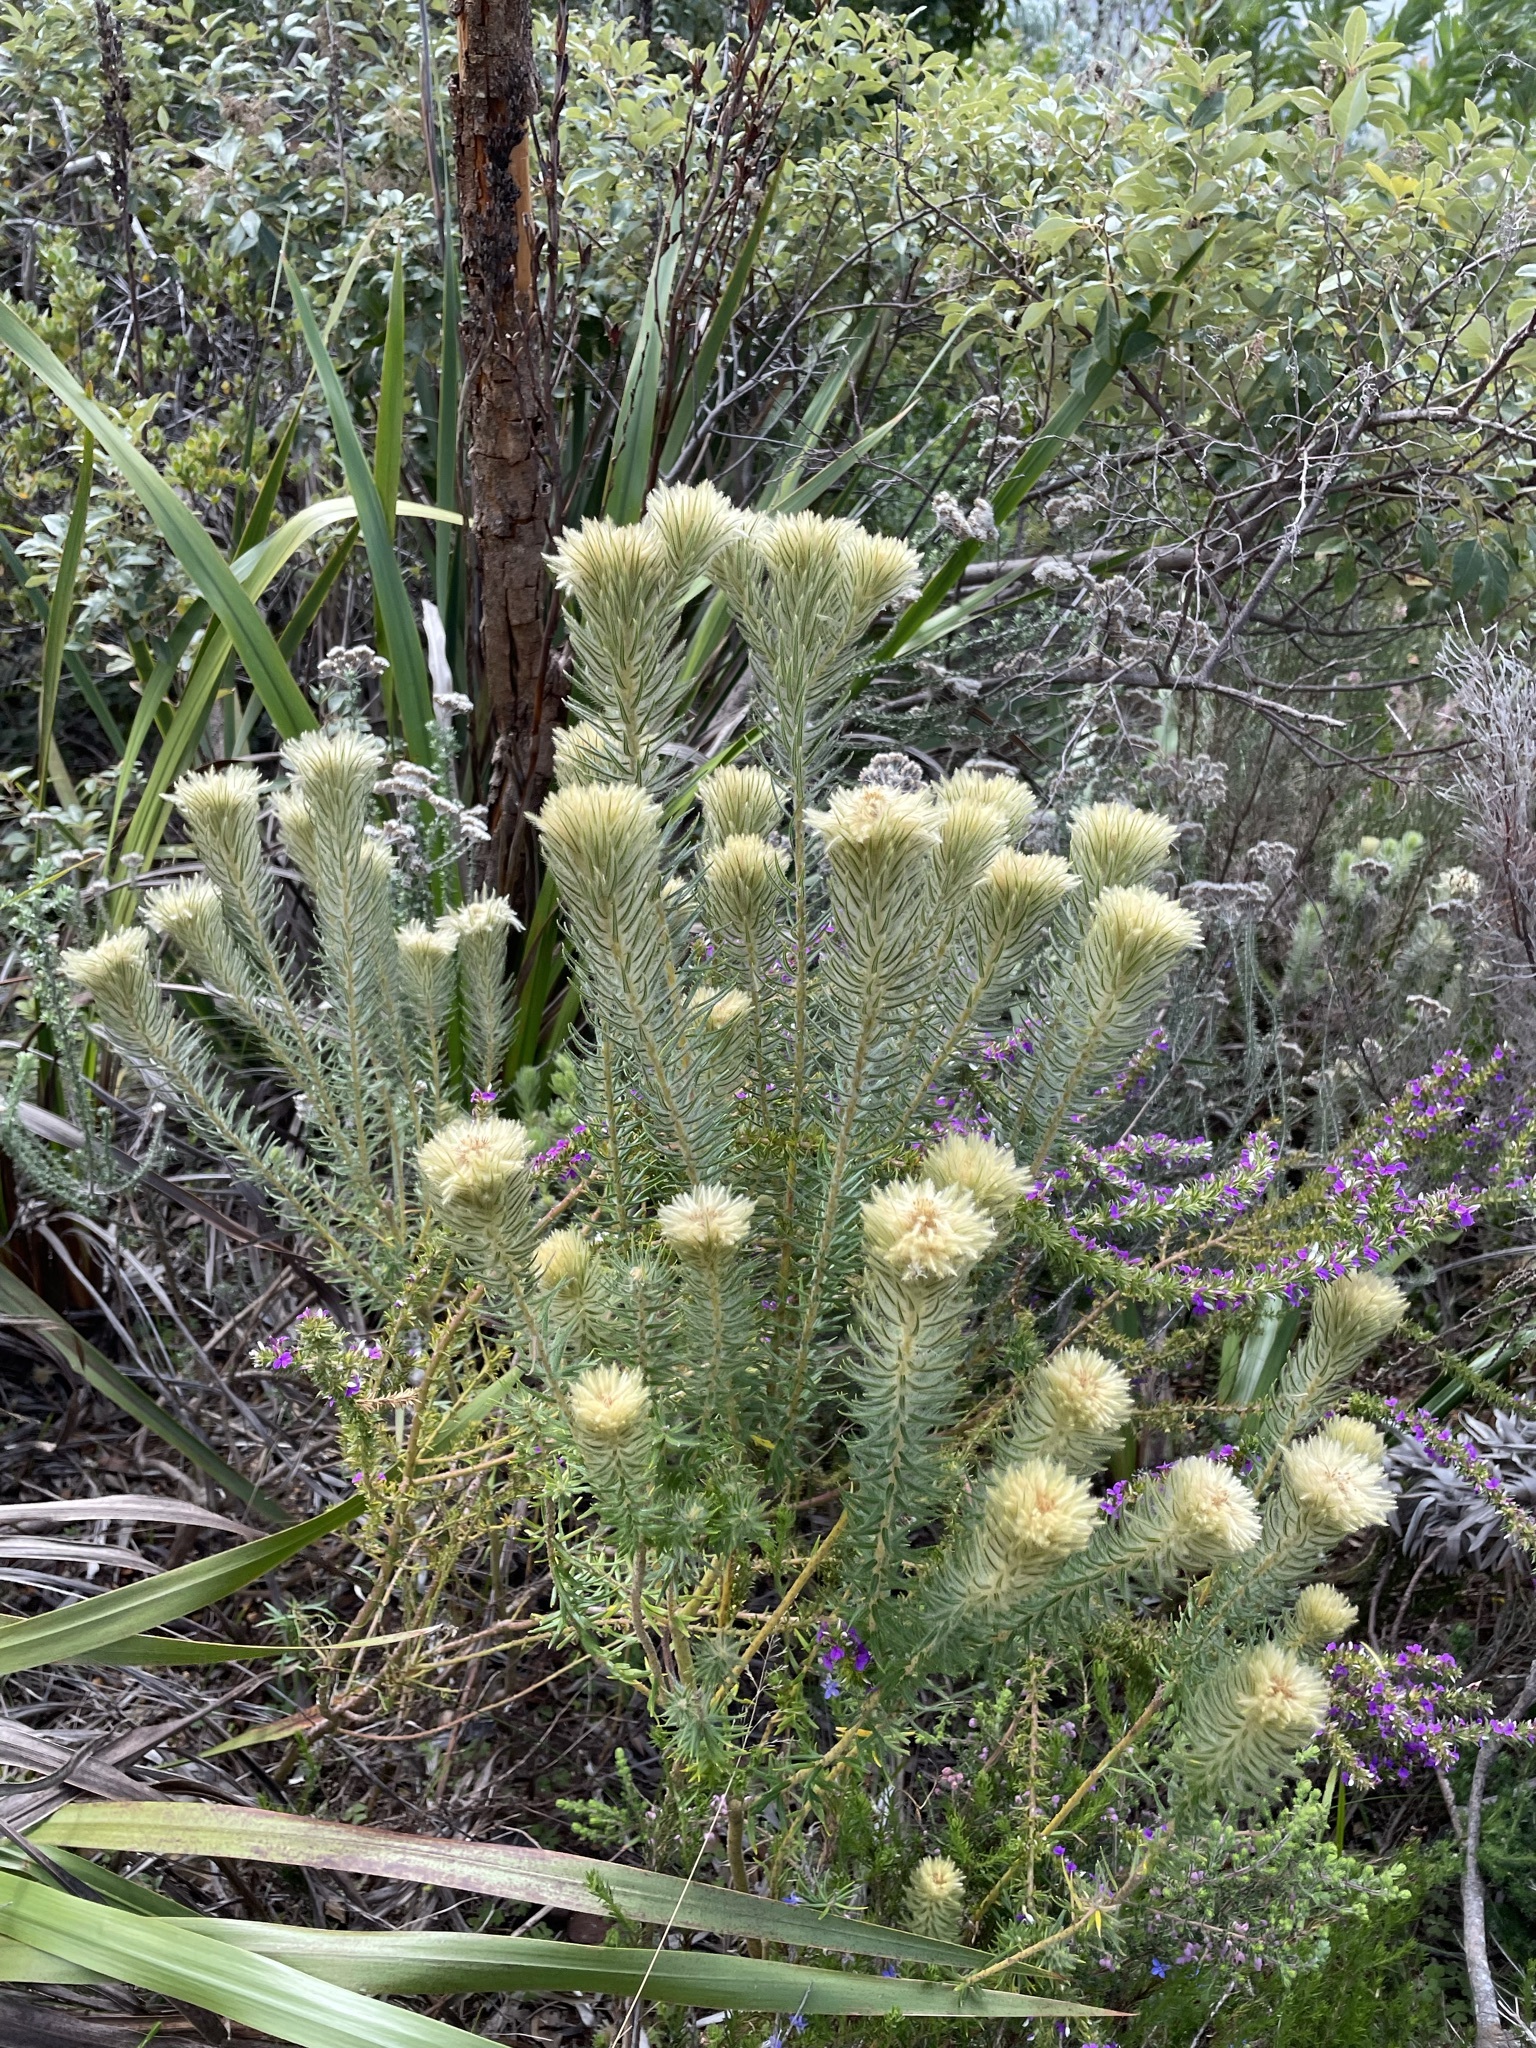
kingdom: Plantae
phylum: Tracheophyta
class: Magnoliopsida
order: Rosales
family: Rhamnaceae
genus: Phylica
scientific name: Phylica pubescens
